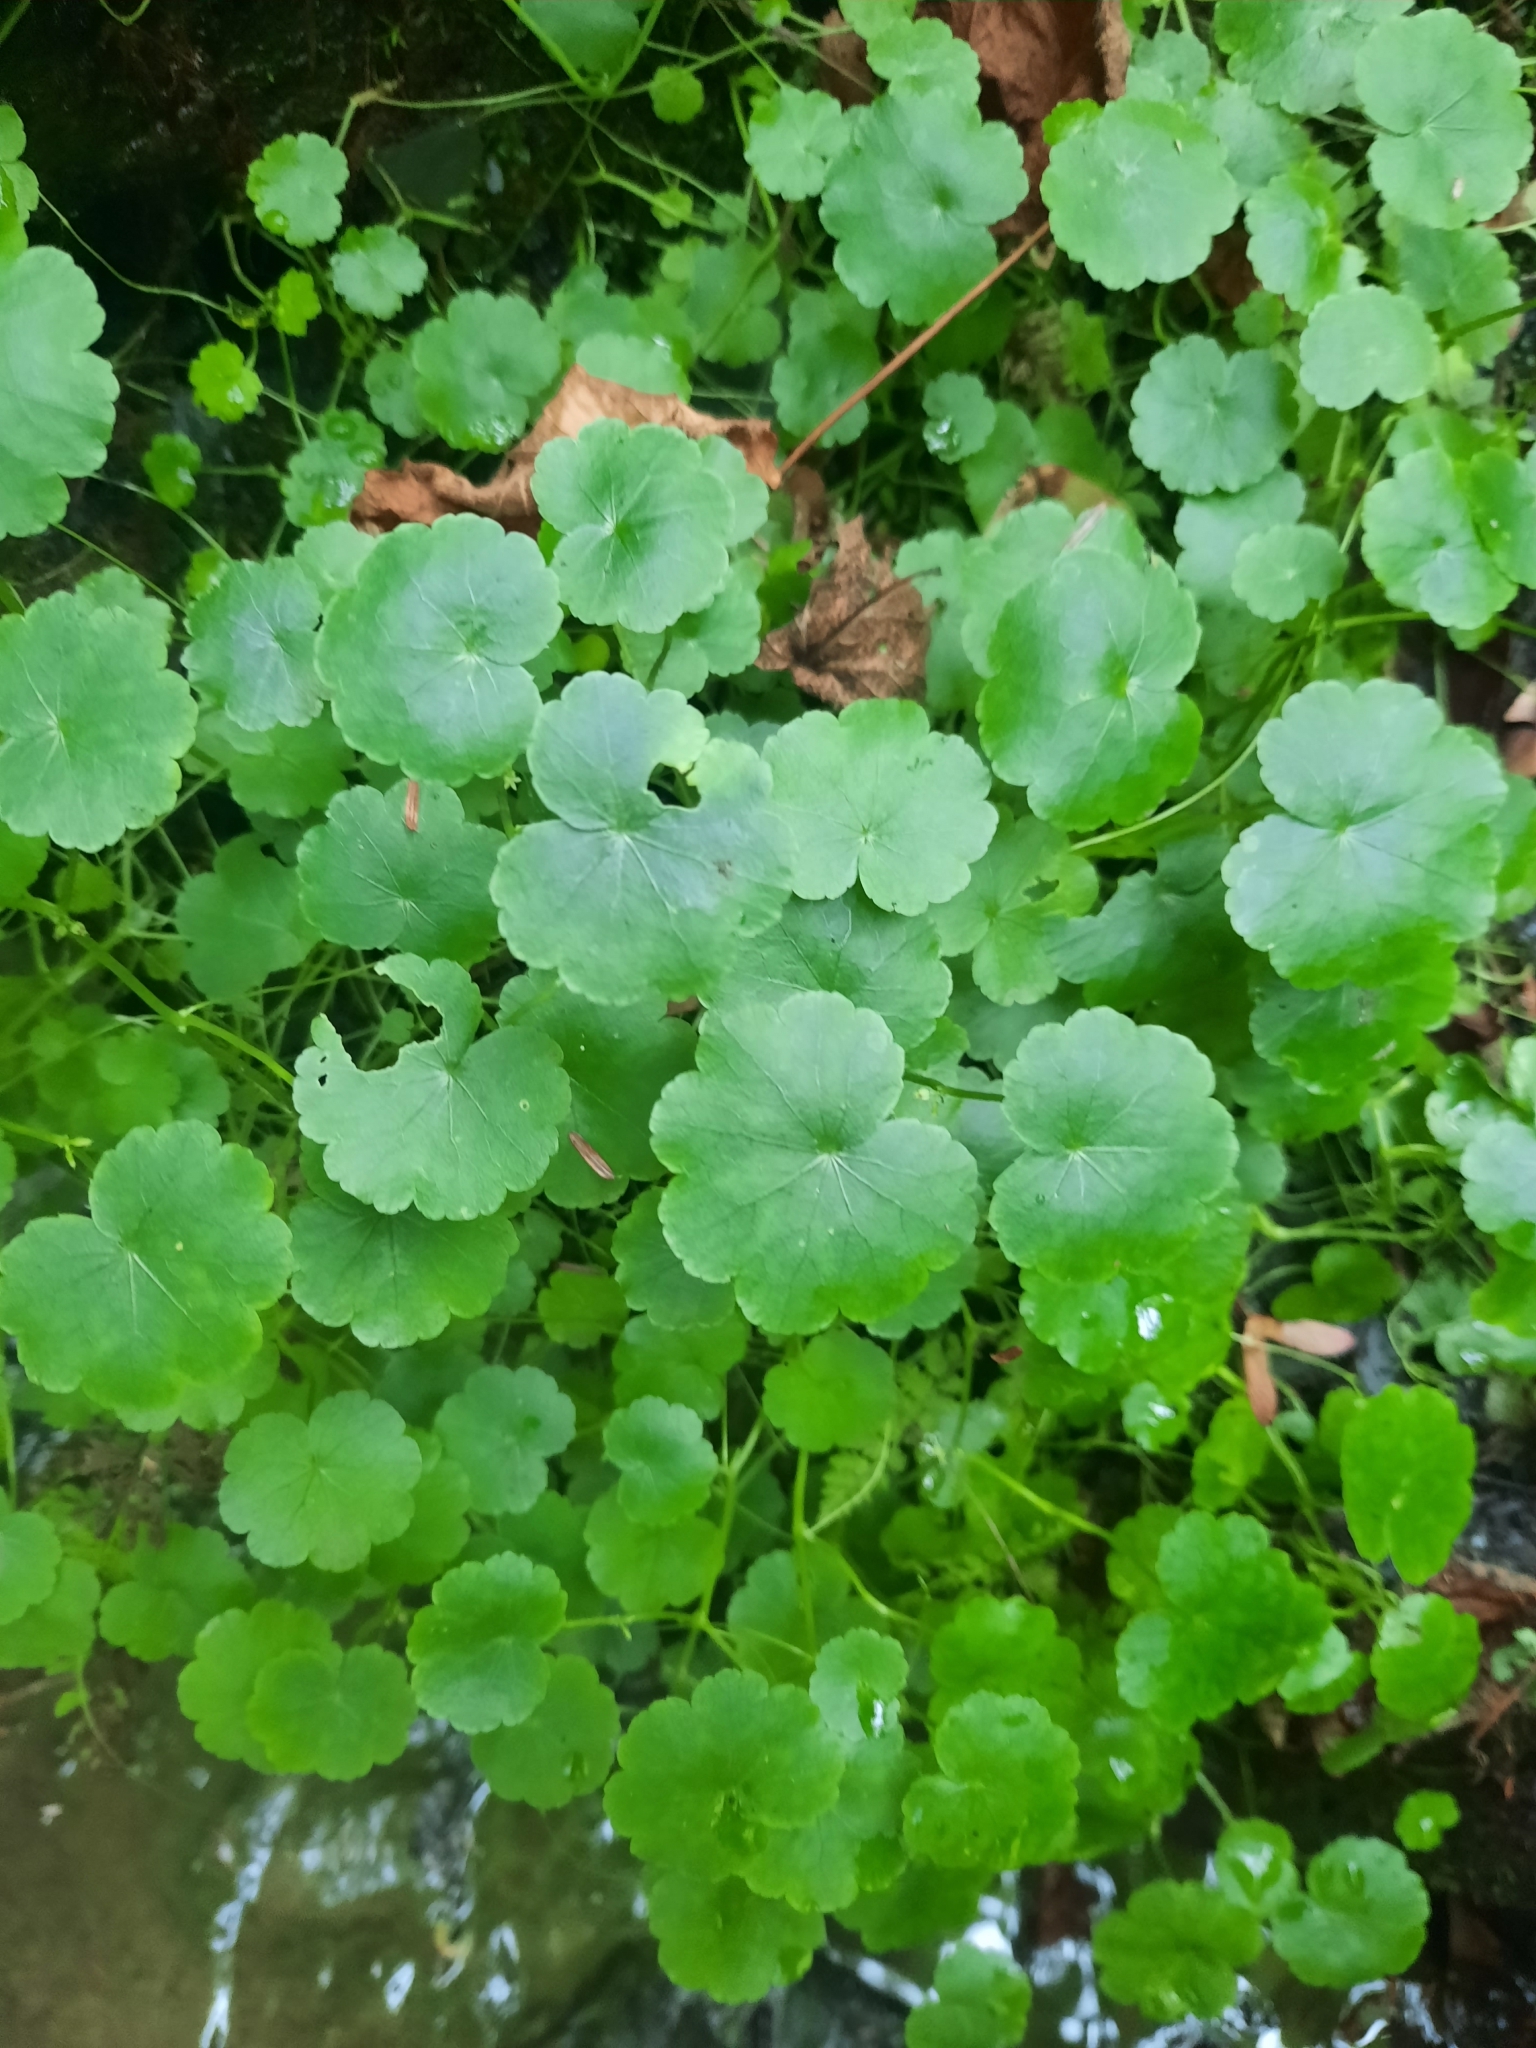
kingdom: Plantae
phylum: Tracheophyta
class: Magnoliopsida
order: Apiales
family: Araliaceae
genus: Hydrocotyle
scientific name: Hydrocotyle americana
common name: American water-pennywort
